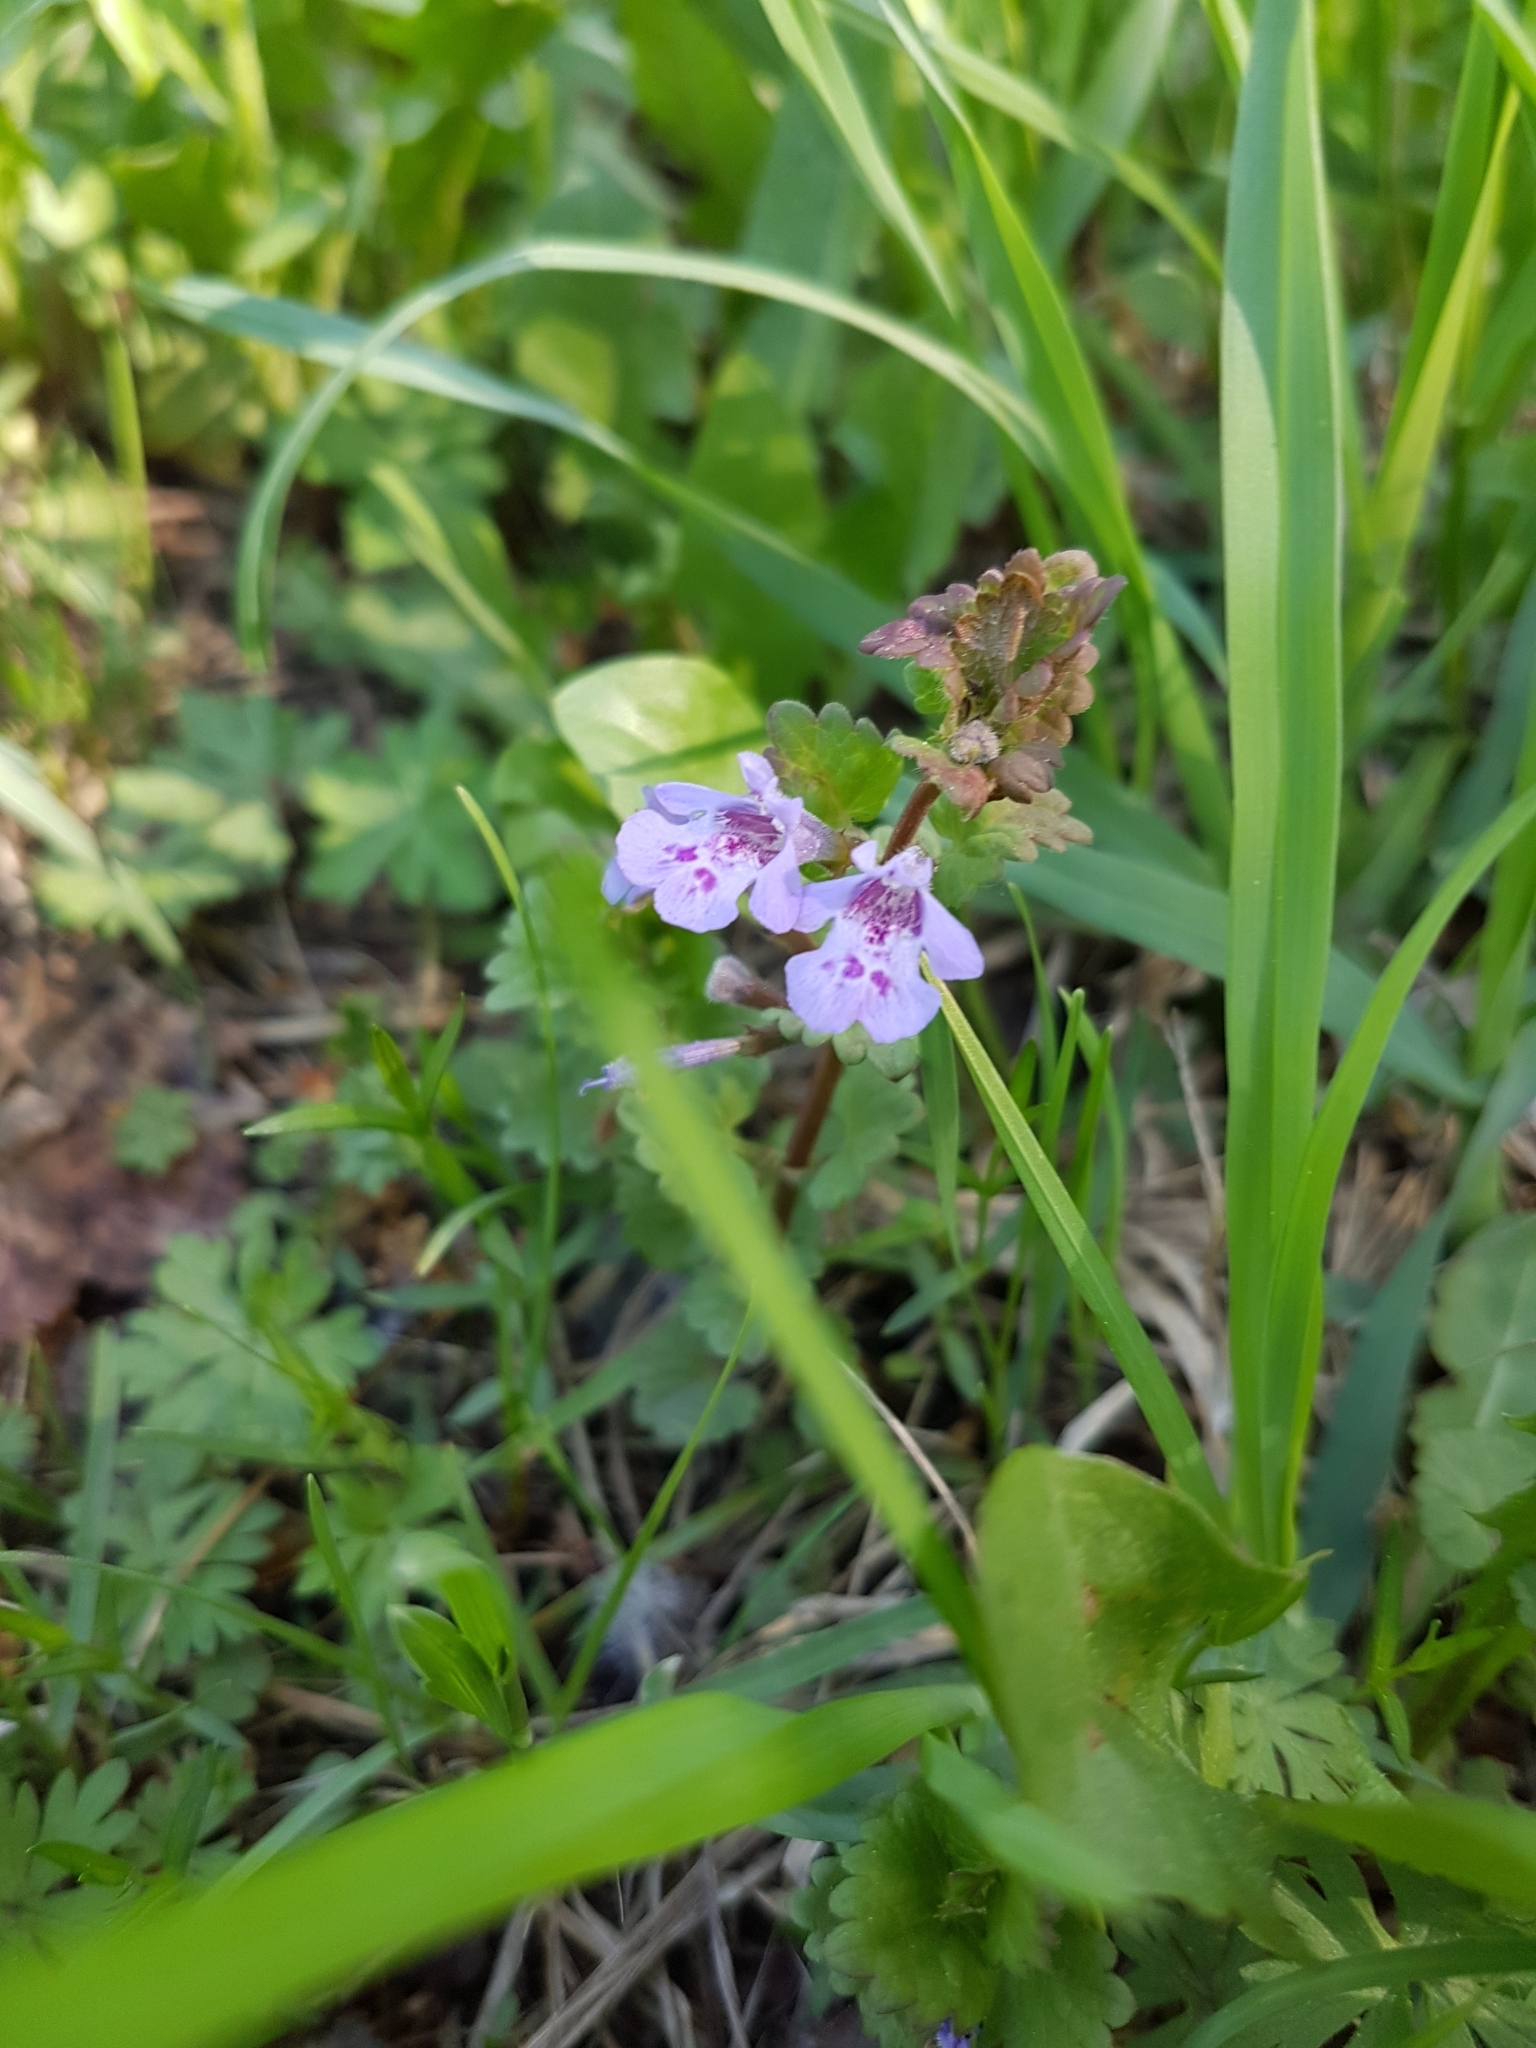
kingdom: Plantae
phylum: Tracheophyta
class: Magnoliopsida
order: Lamiales
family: Lamiaceae
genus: Glechoma
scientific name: Glechoma hederacea
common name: Ground ivy
